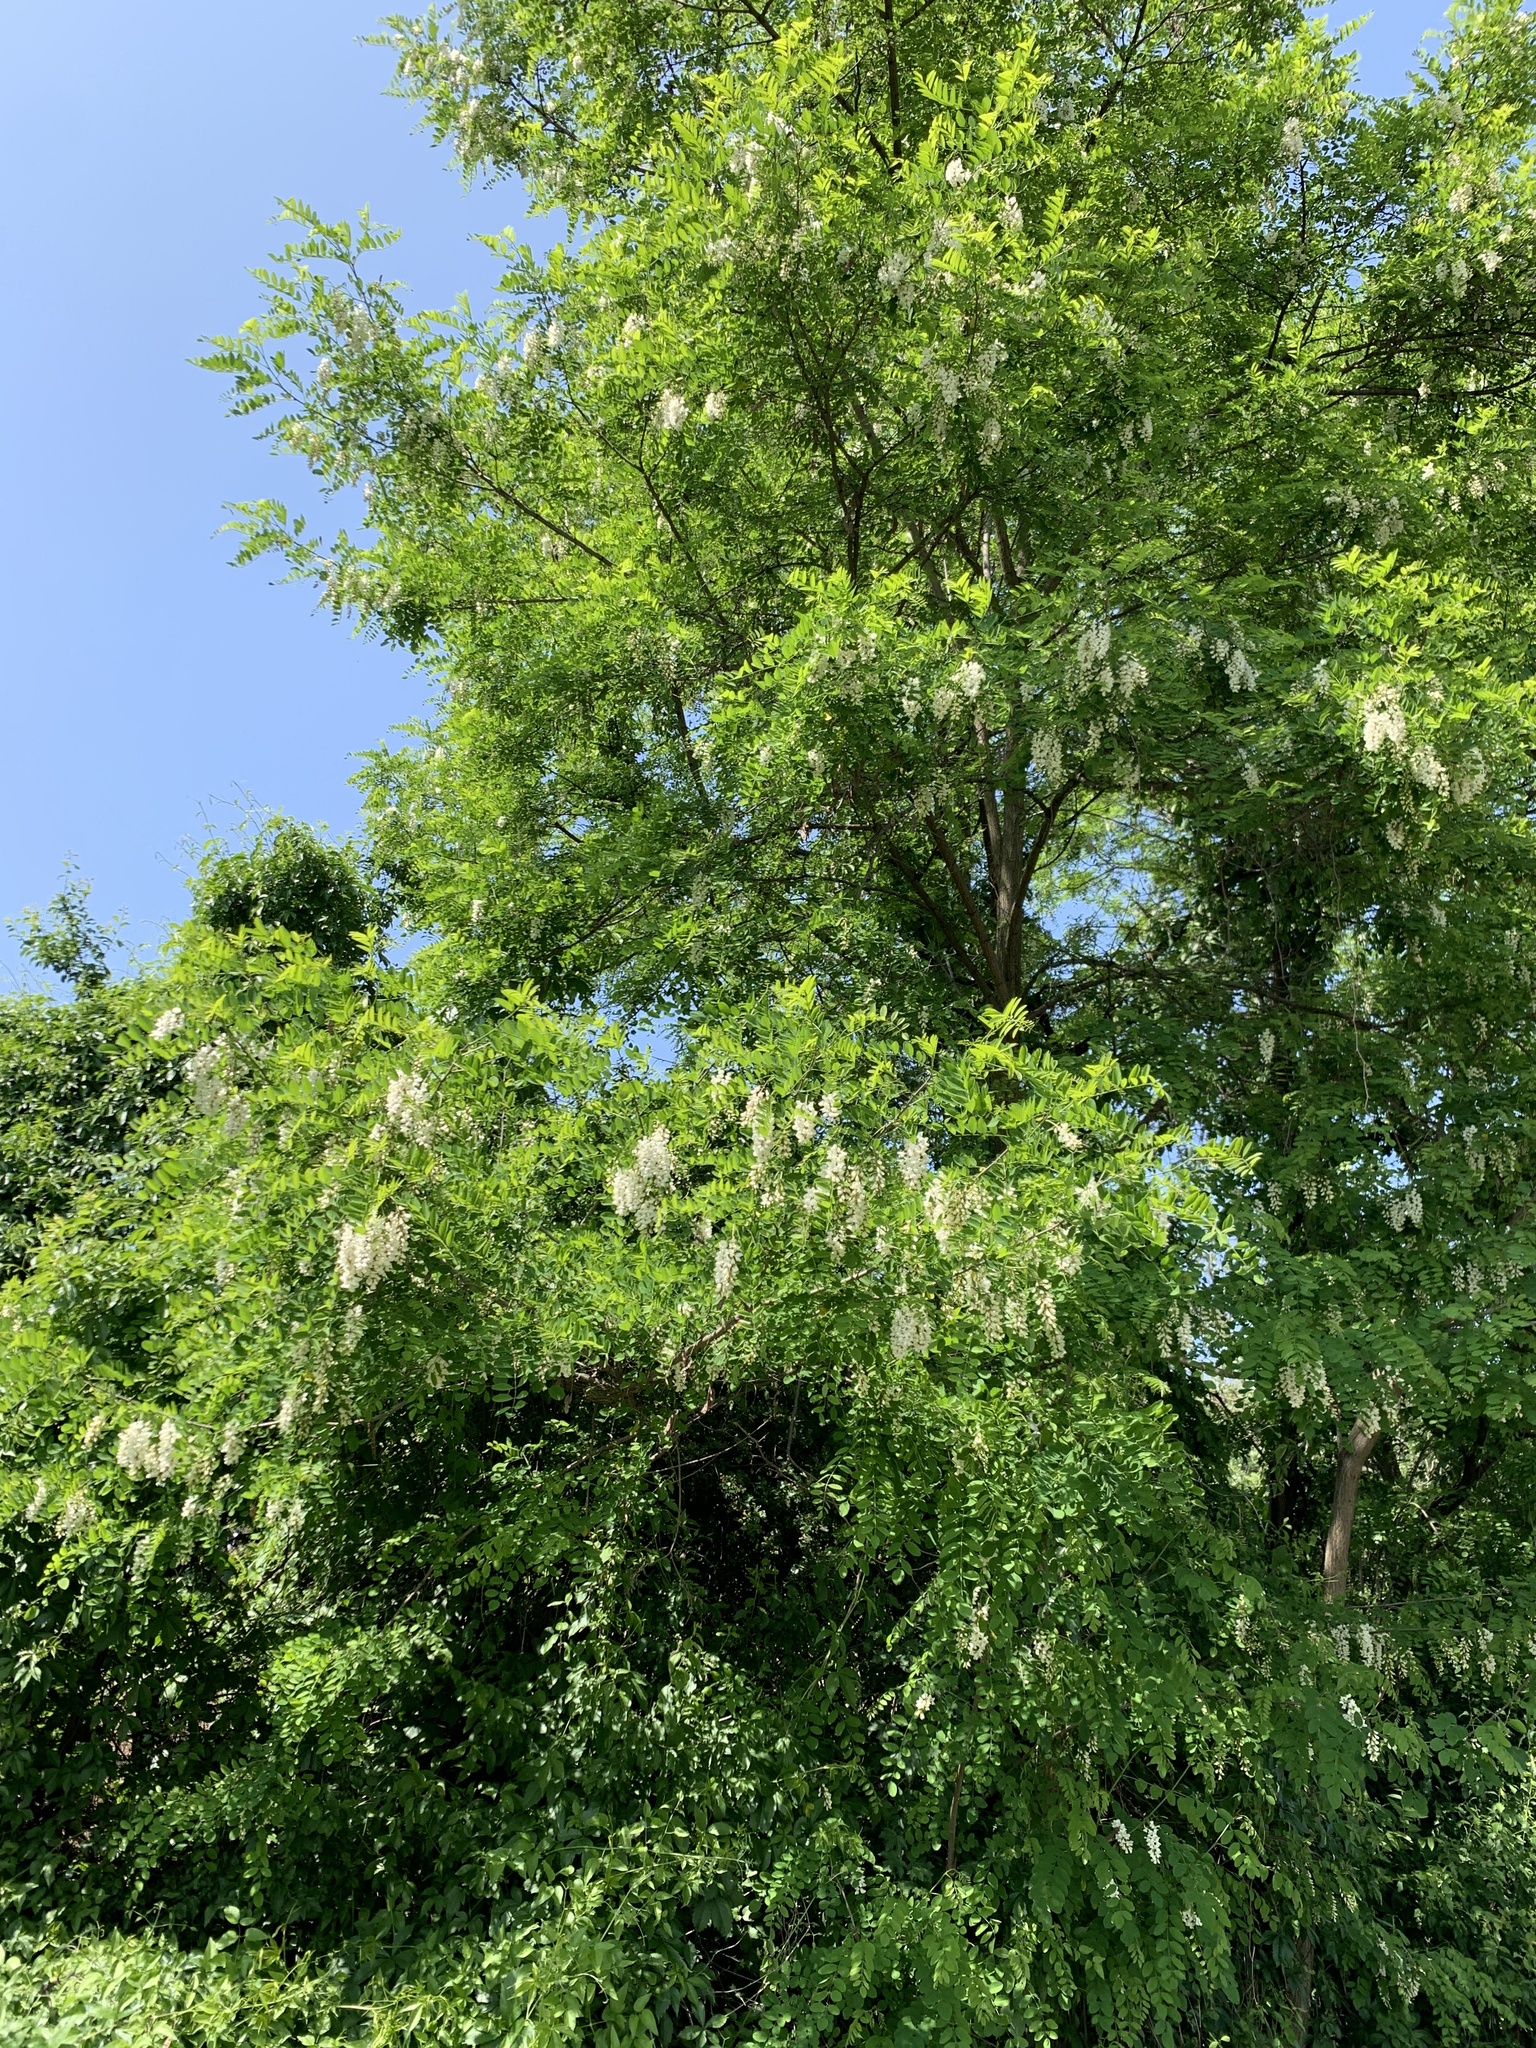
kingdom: Plantae
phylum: Tracheophyta
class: Magnoliopsida
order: Fabales
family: Fabaceae
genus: Robinia
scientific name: Robinia pseudoacacia
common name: Black locust
